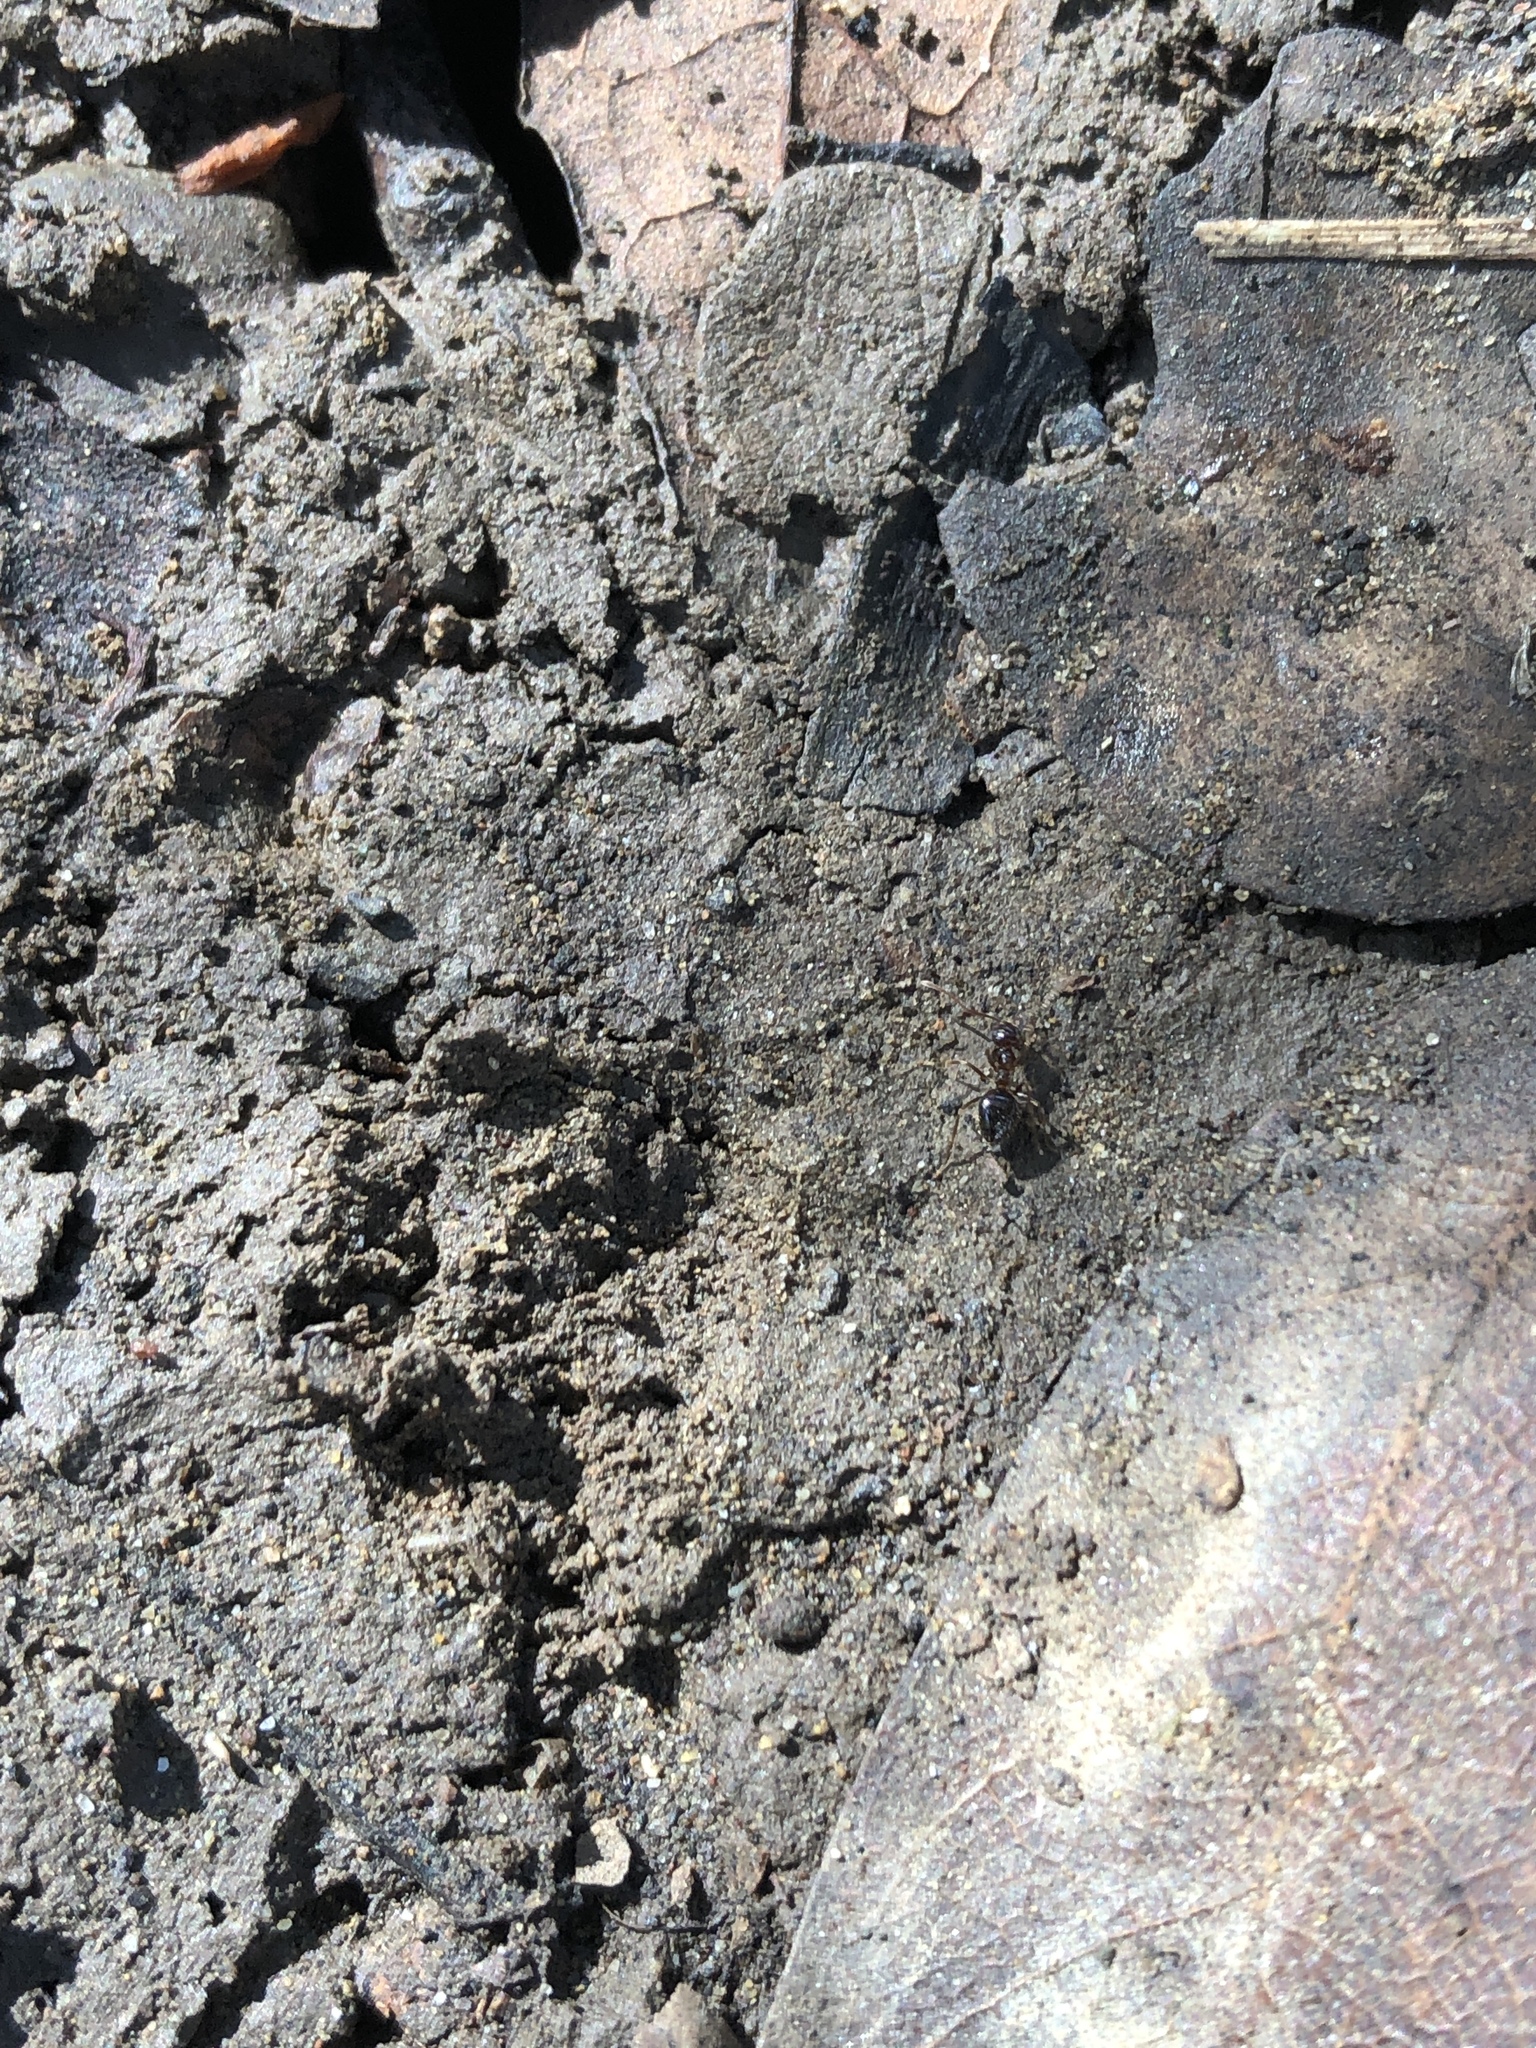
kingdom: Animalia
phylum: Arthropoda
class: Insecta
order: Hymenoptera
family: Formicidae
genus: Prenolepis
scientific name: Prenolepis imparis
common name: Small honey ant
